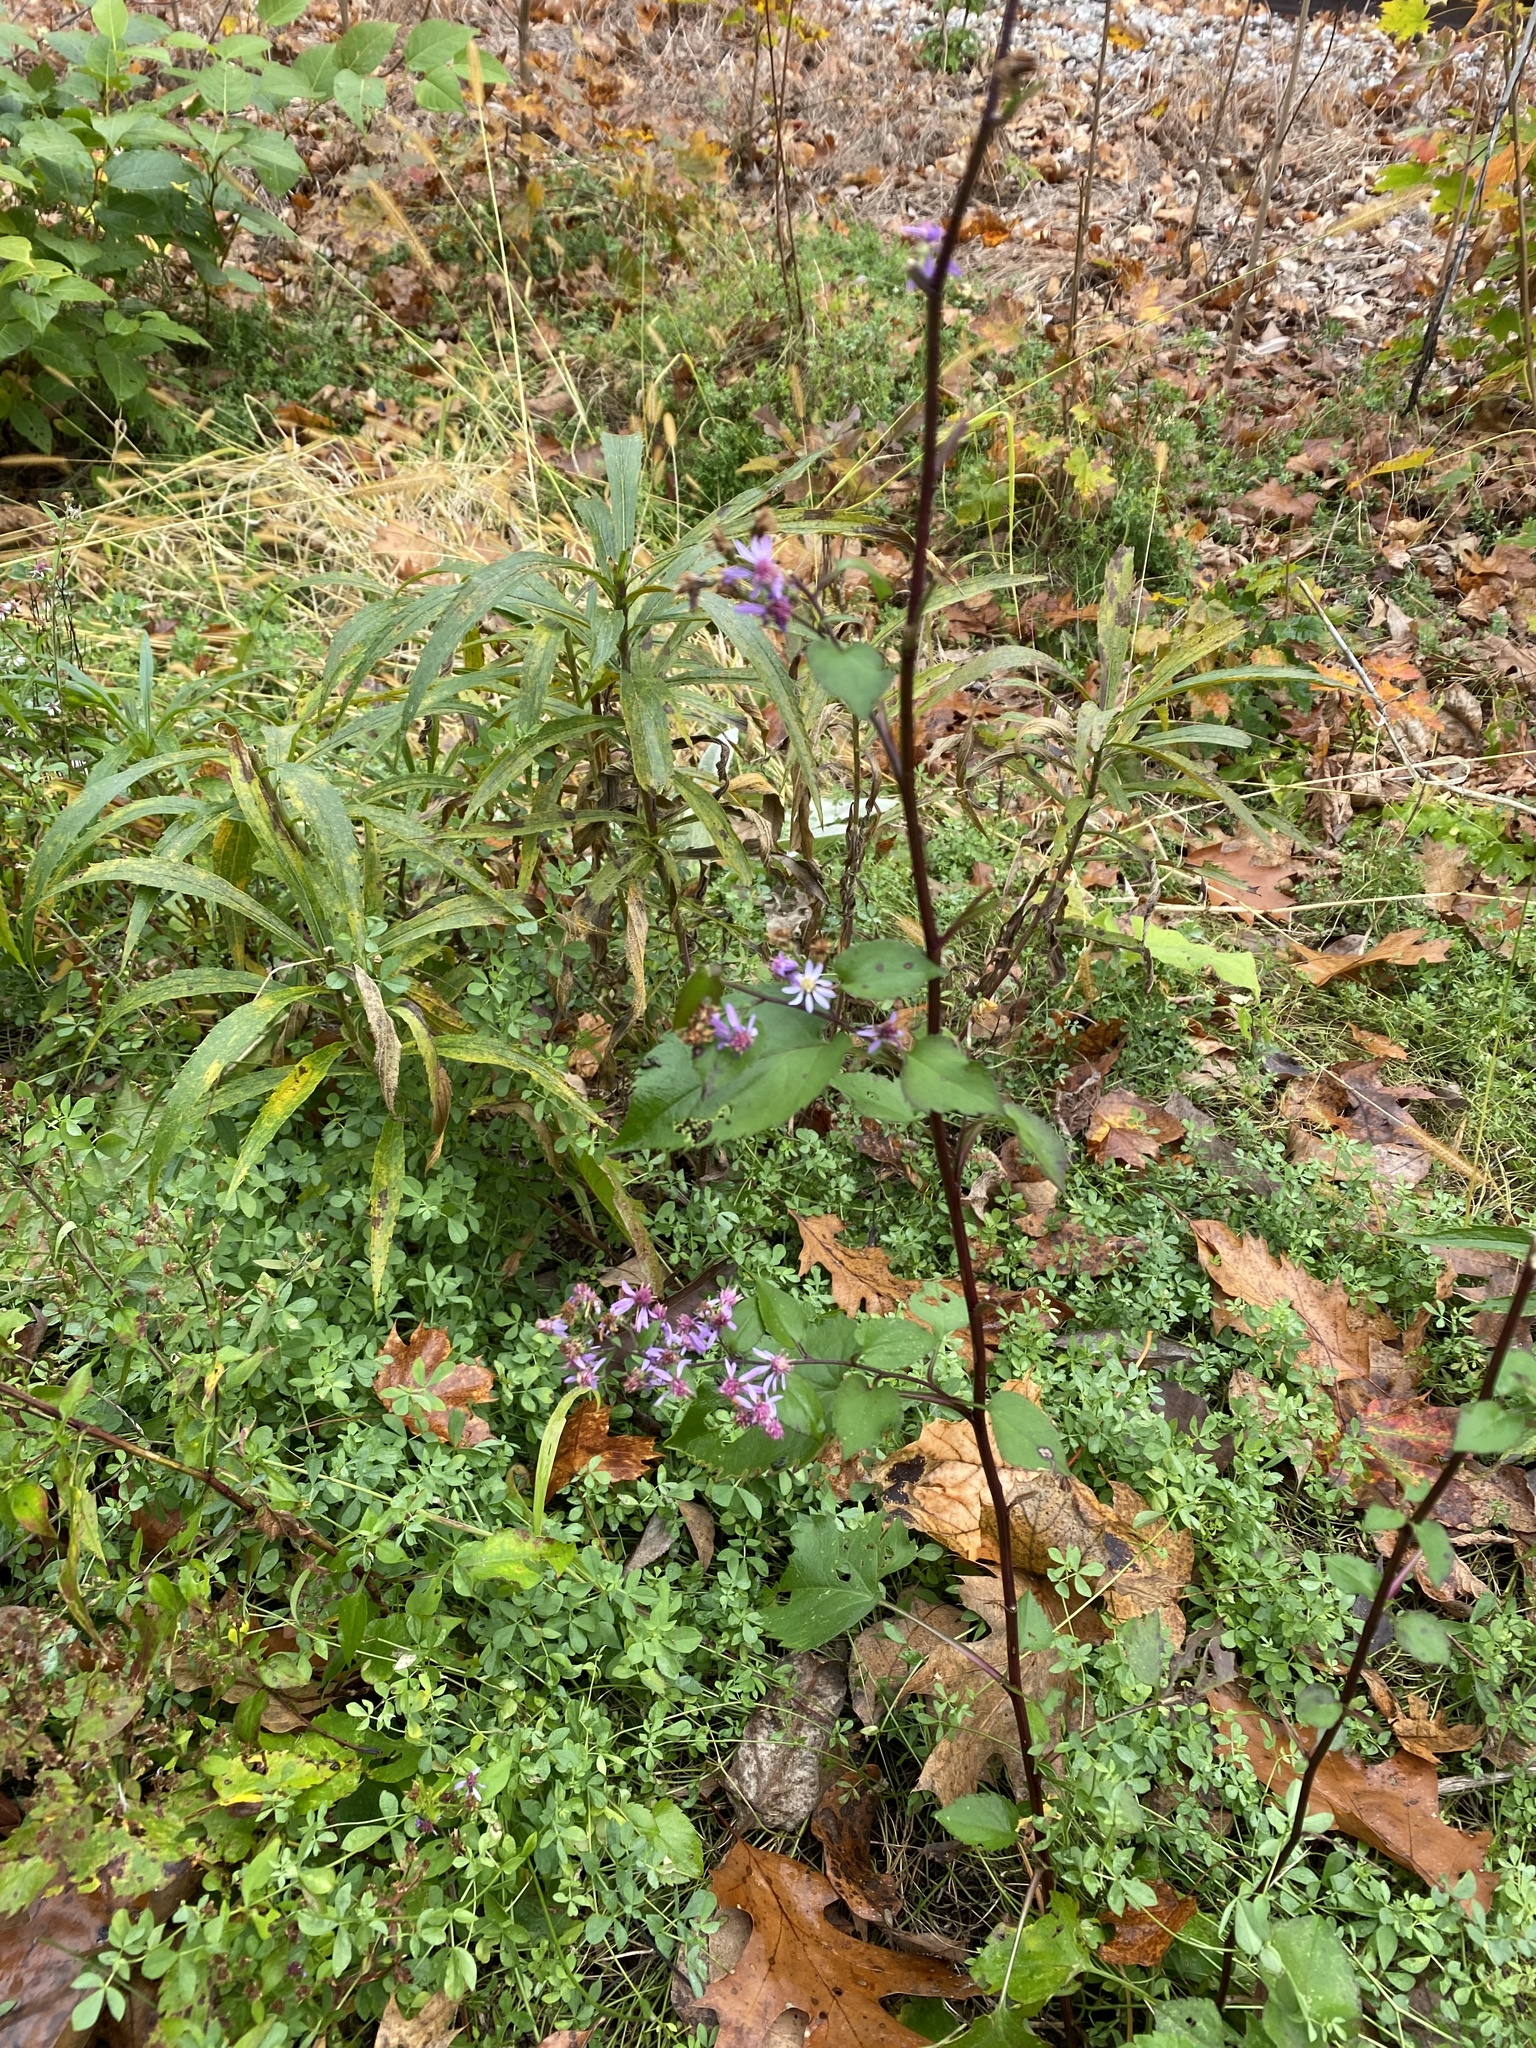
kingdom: Plantae
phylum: Tracheophyta
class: Magnoliopsida
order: Asterales
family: Asteraceae
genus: Symphyotrichum
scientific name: Symphyotrichum cordifolium
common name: Beeweed
